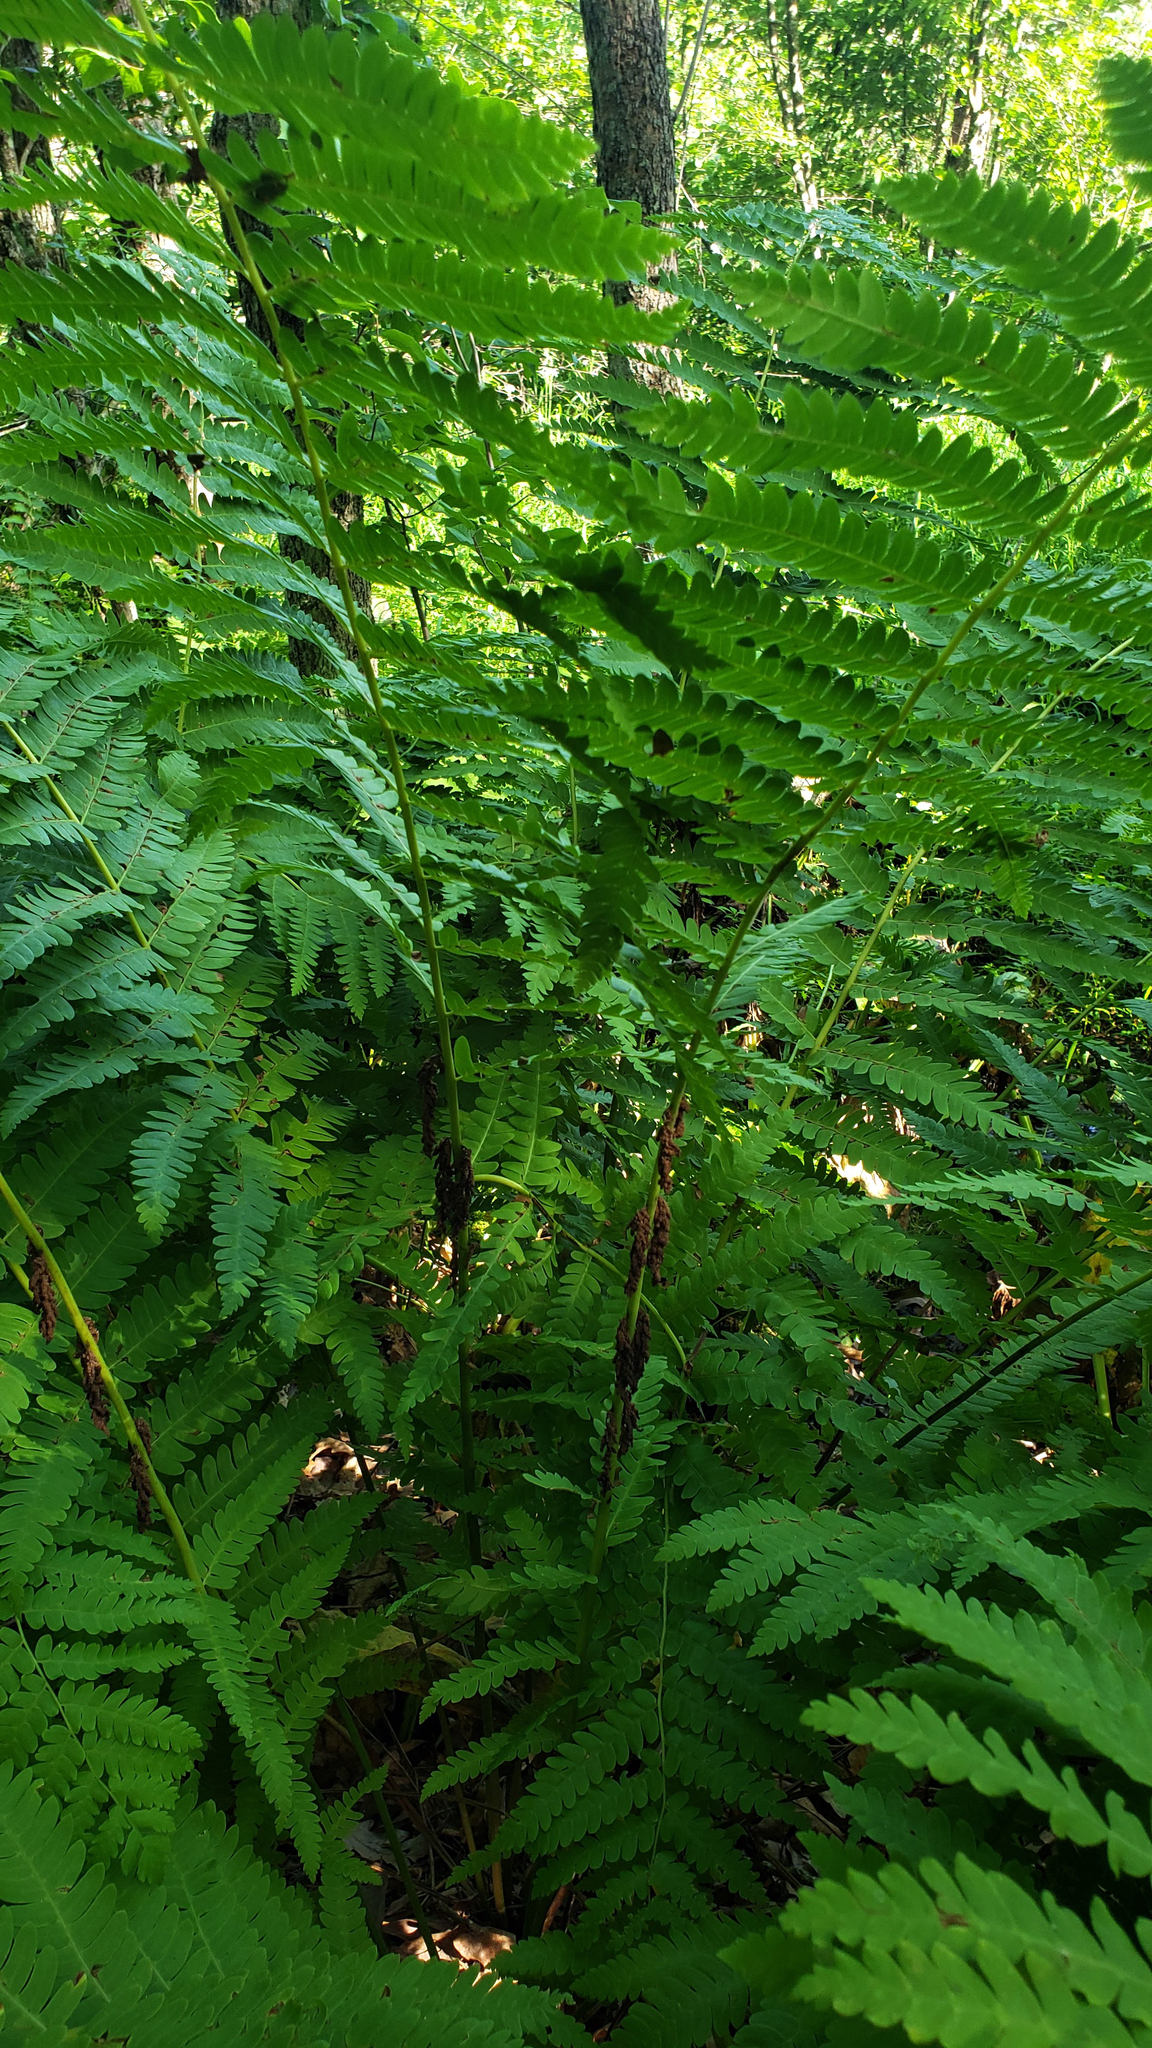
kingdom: Plantae
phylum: Tracheophyta
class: Polypodiopsida
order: Osmundales
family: Osmundaceae
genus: Claytosmunda
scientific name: Claytosmunda claytoniana
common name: Clayton's fern
